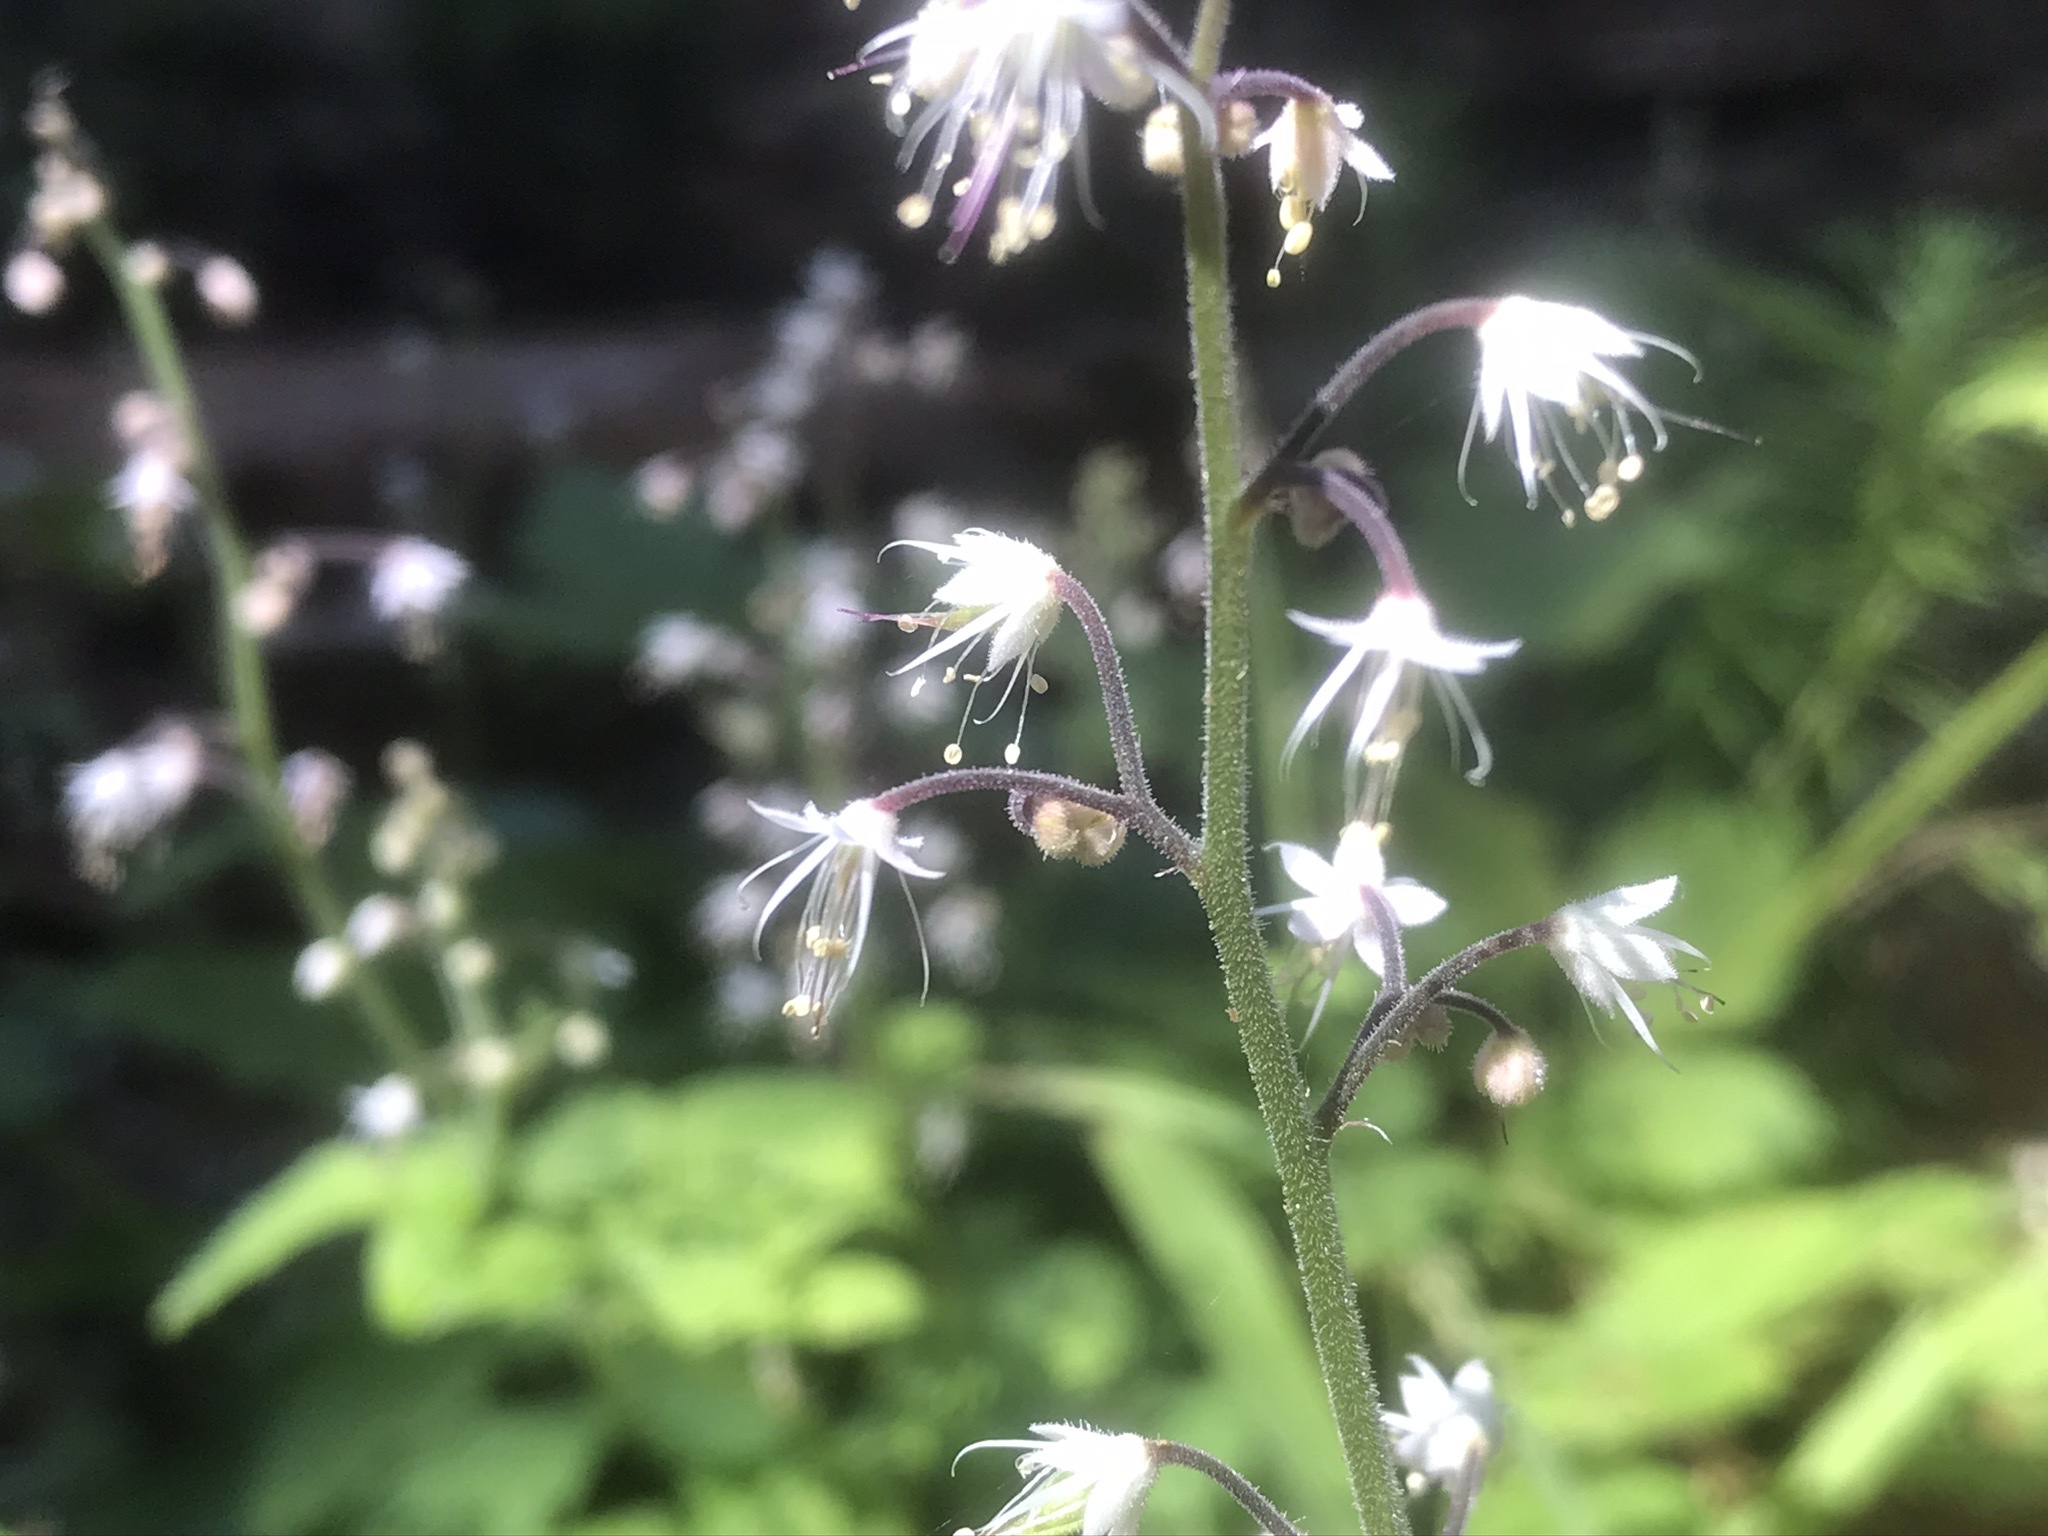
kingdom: Plantae
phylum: Tracheophyta
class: Magnoliopsida
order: Saxifragales
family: Saxifragaceae
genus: Tiarella
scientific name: Tiarella trifoliata
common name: Sugar-scoop
